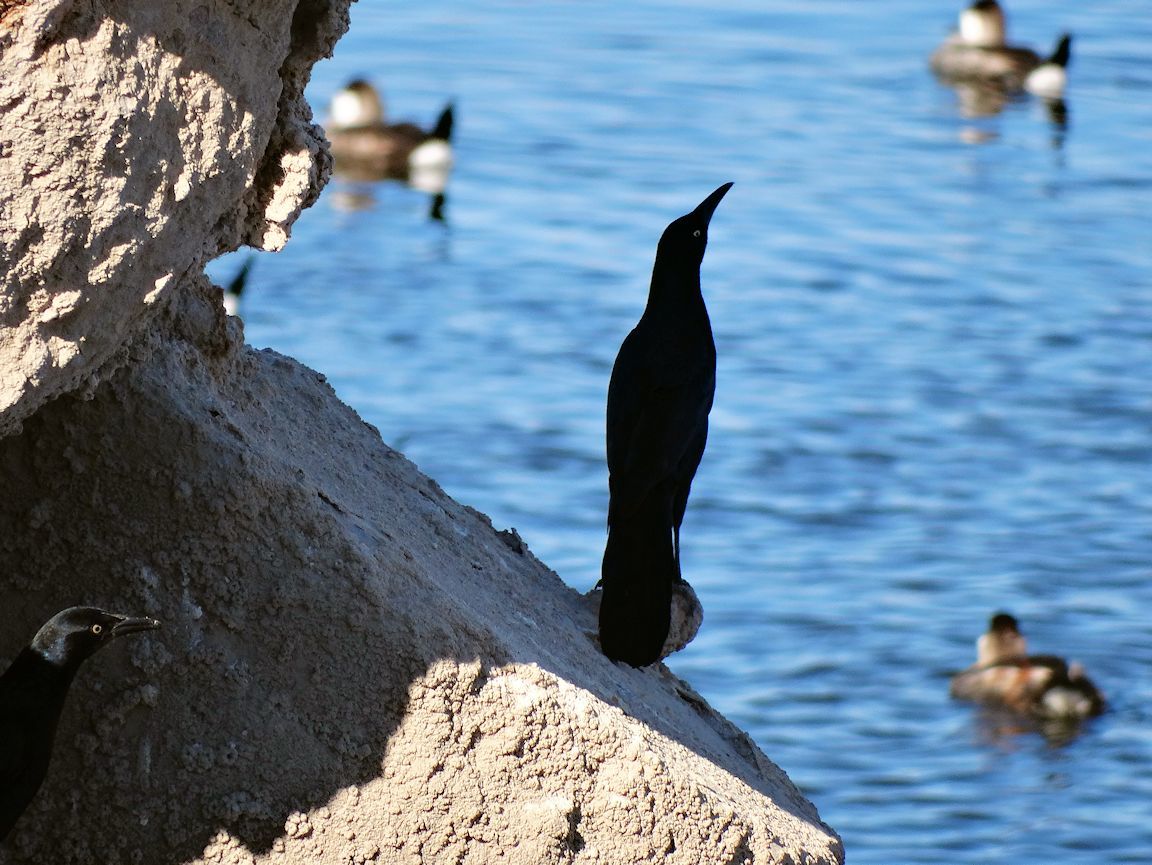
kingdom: Animalia
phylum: Chordata
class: Aves
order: Passeriformes
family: Icteridae
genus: Quiscalus
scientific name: Quiscalus mexicanus
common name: Great-tailed grackle
